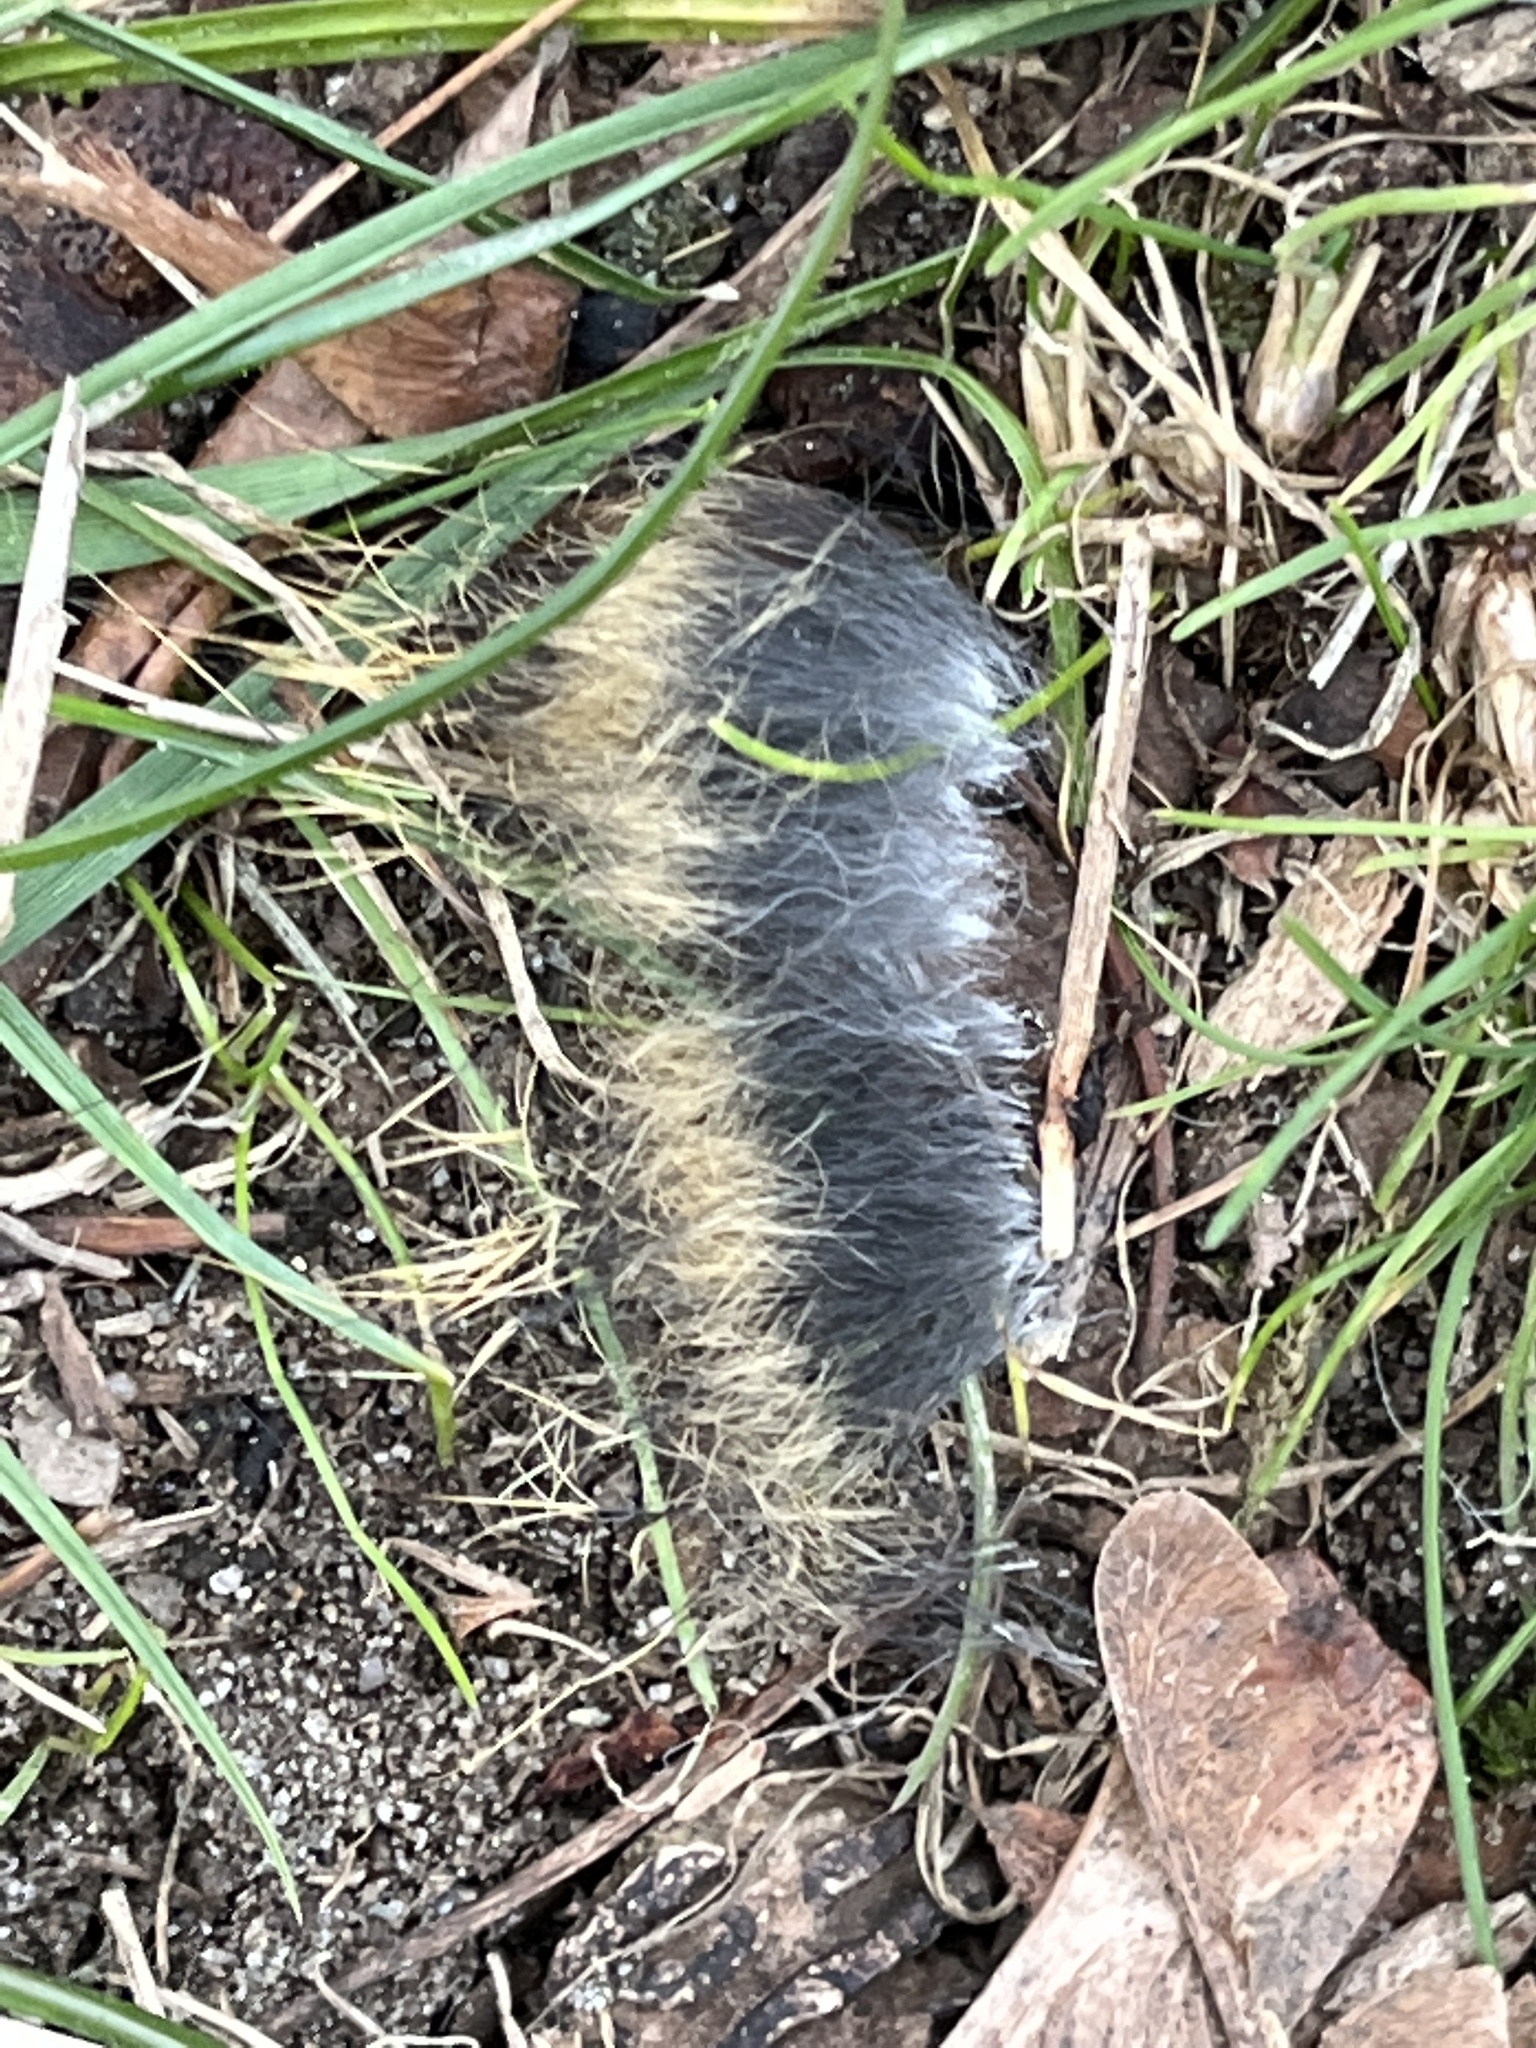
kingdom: Animalia
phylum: Chordata
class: Mammalia
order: Rodentia
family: Sciuridae
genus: Sciurus
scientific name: Sciurus niger
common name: Fox squirrel
